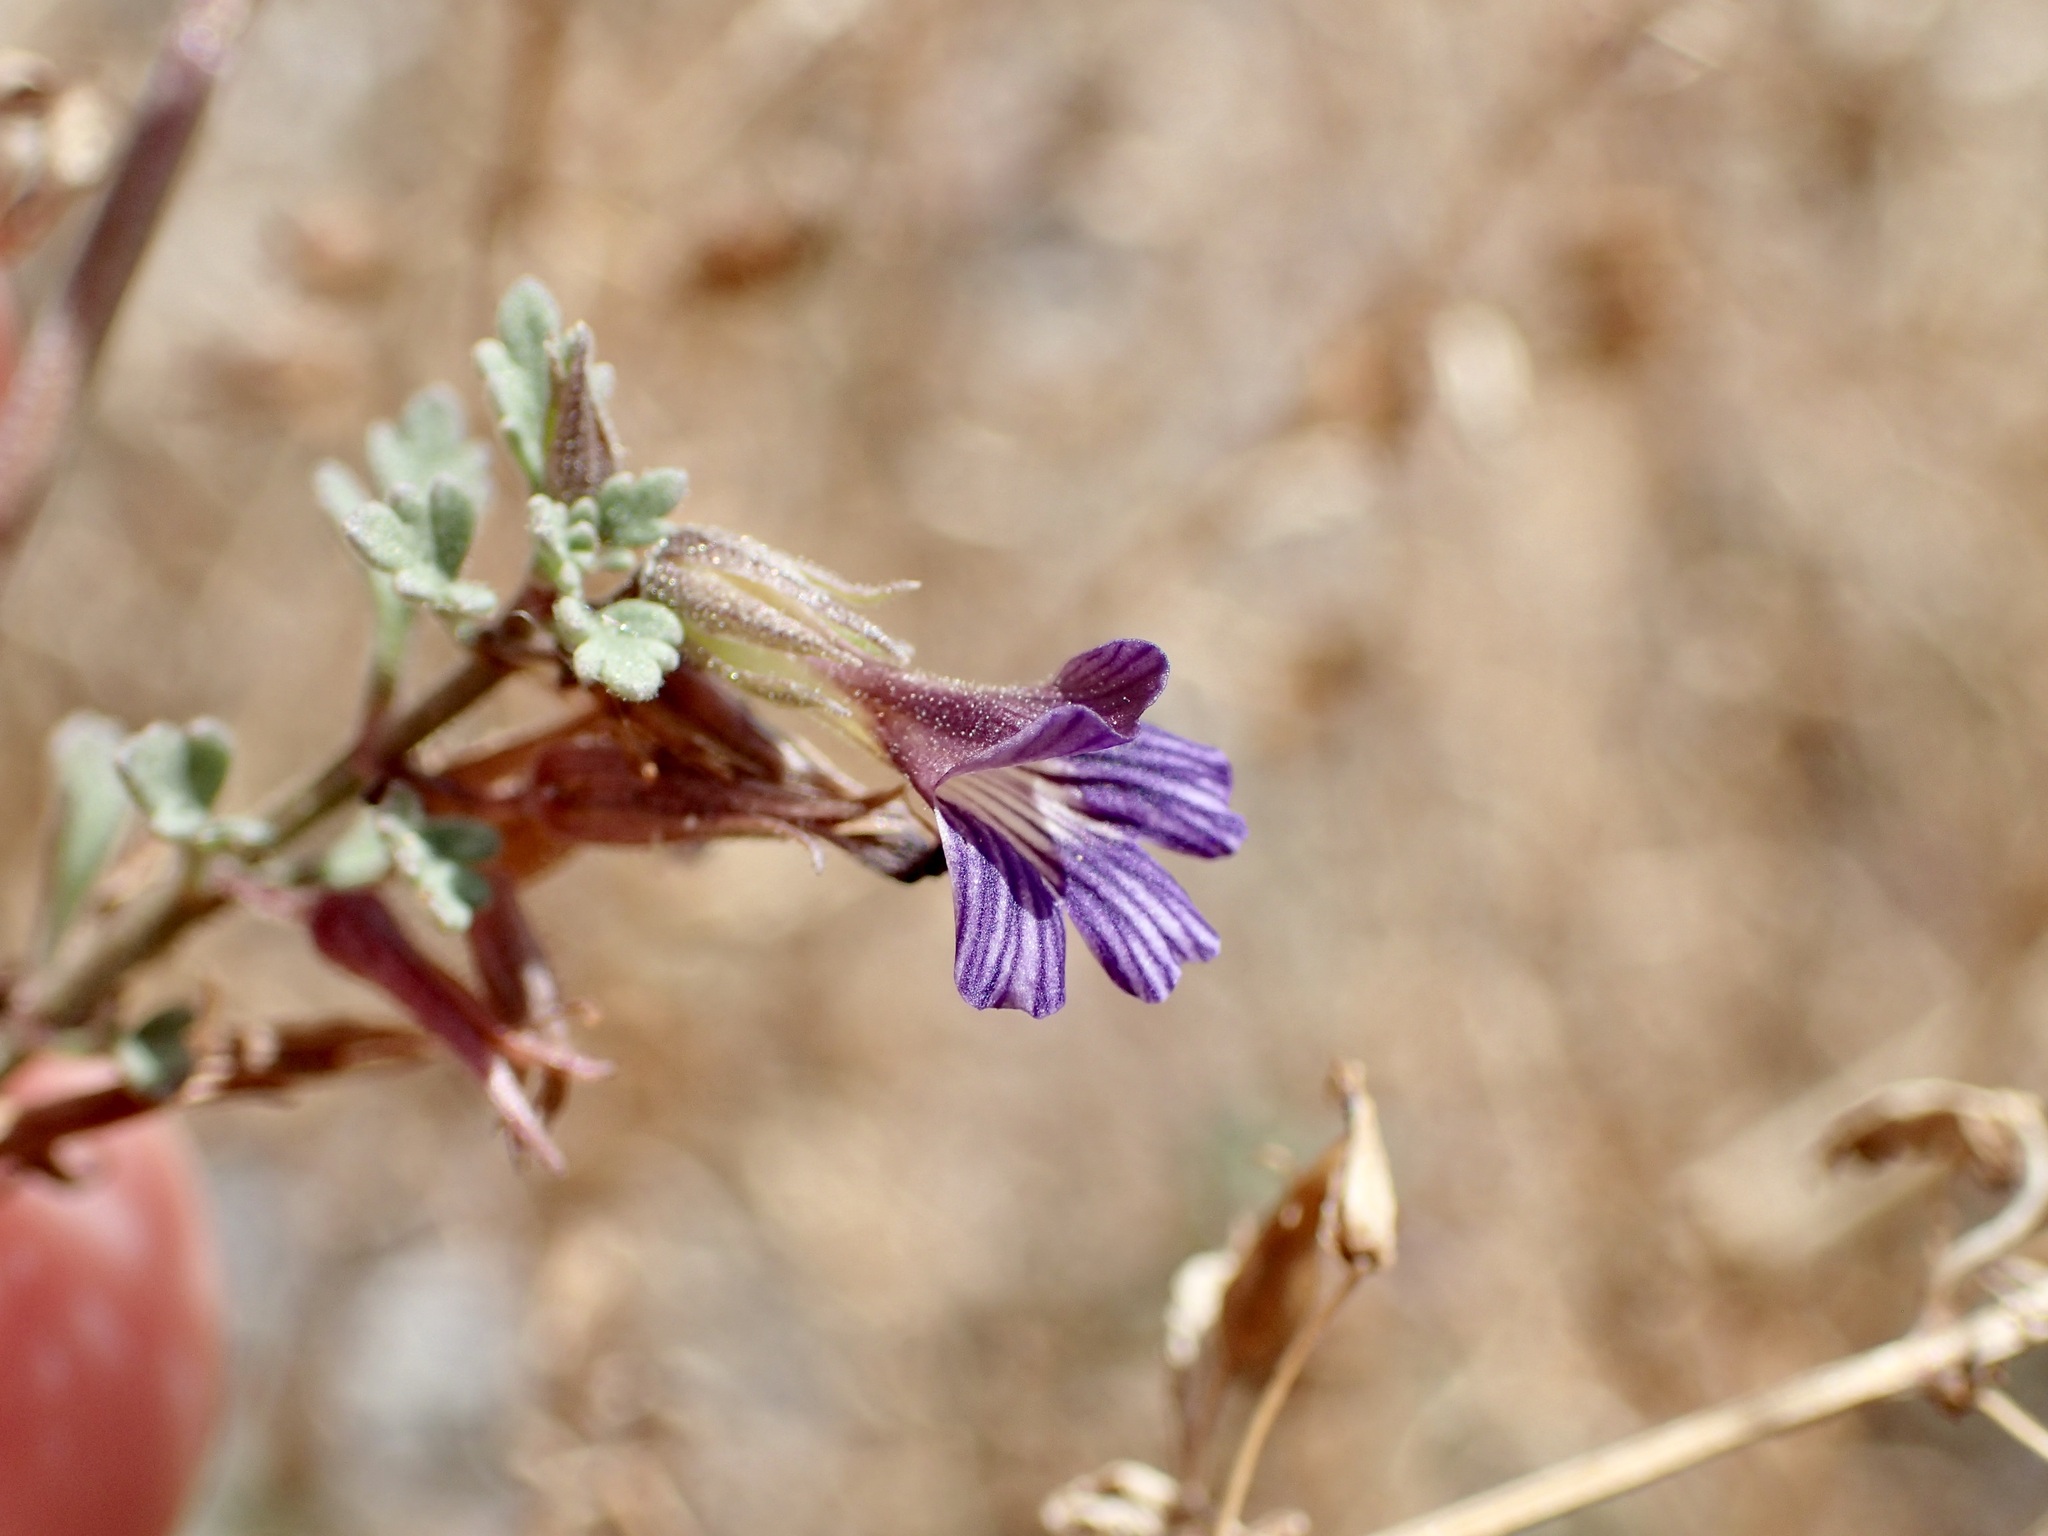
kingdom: Plantae
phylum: Tracheophyta
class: Magnoliopsida
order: Lamiales
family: Plantaginaceae
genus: Schistophragma
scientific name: Schistophragma polystachyum
